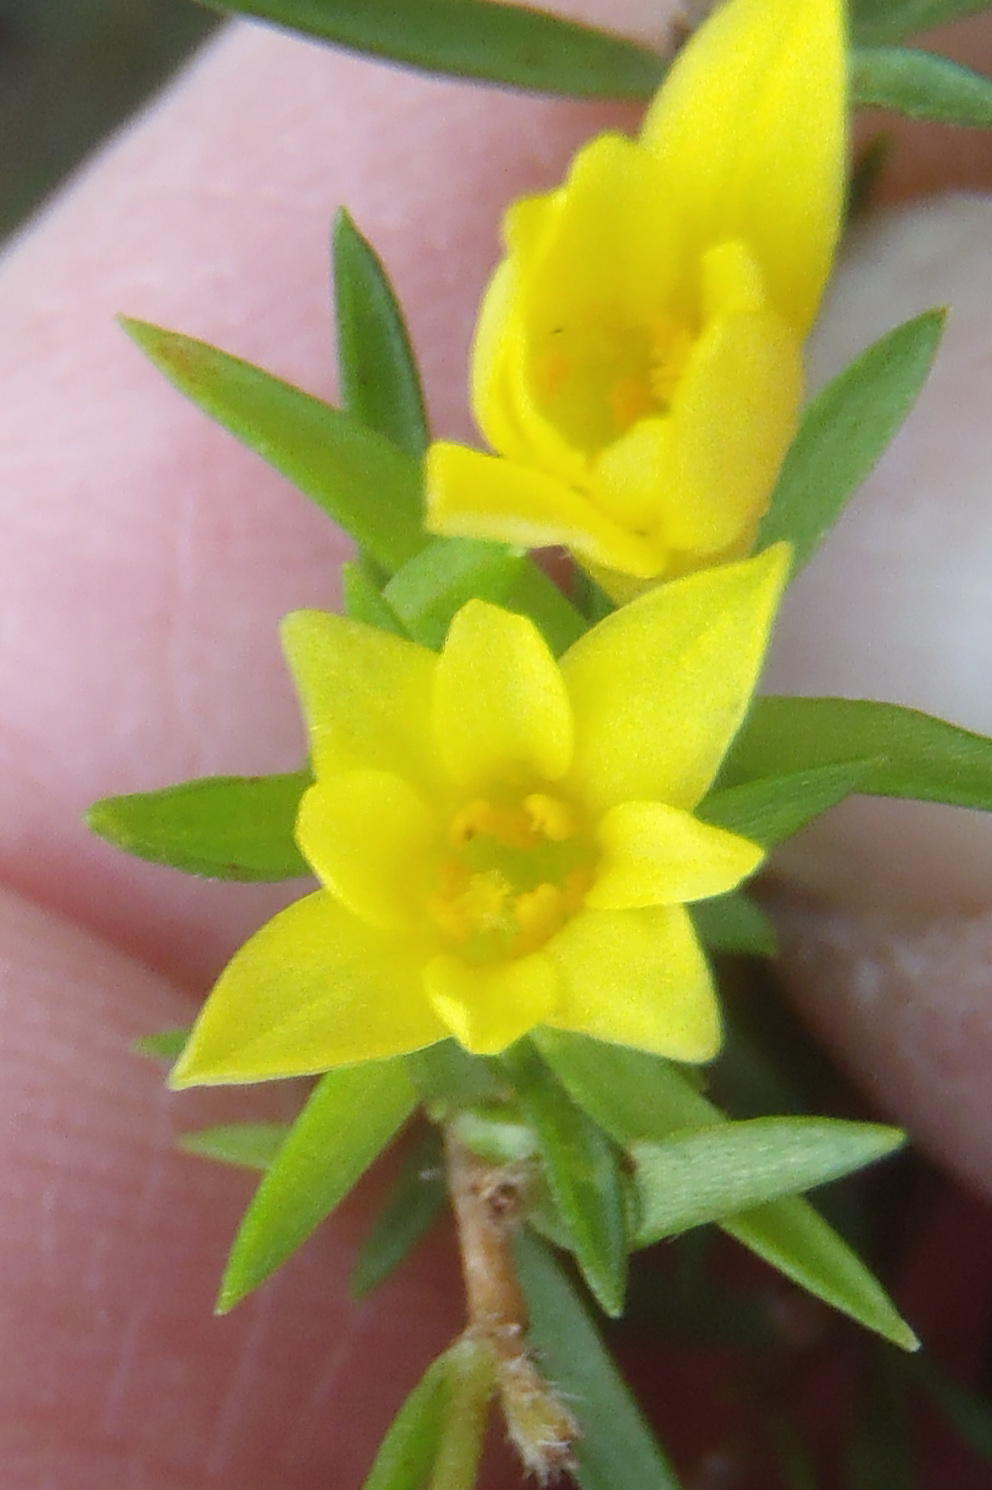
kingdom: Plantae
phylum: Tracheophyta
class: Magnoliopsida
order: Malvales
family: Thymelaeaceae
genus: Gnidia
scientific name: Gnidia juniperifolia
